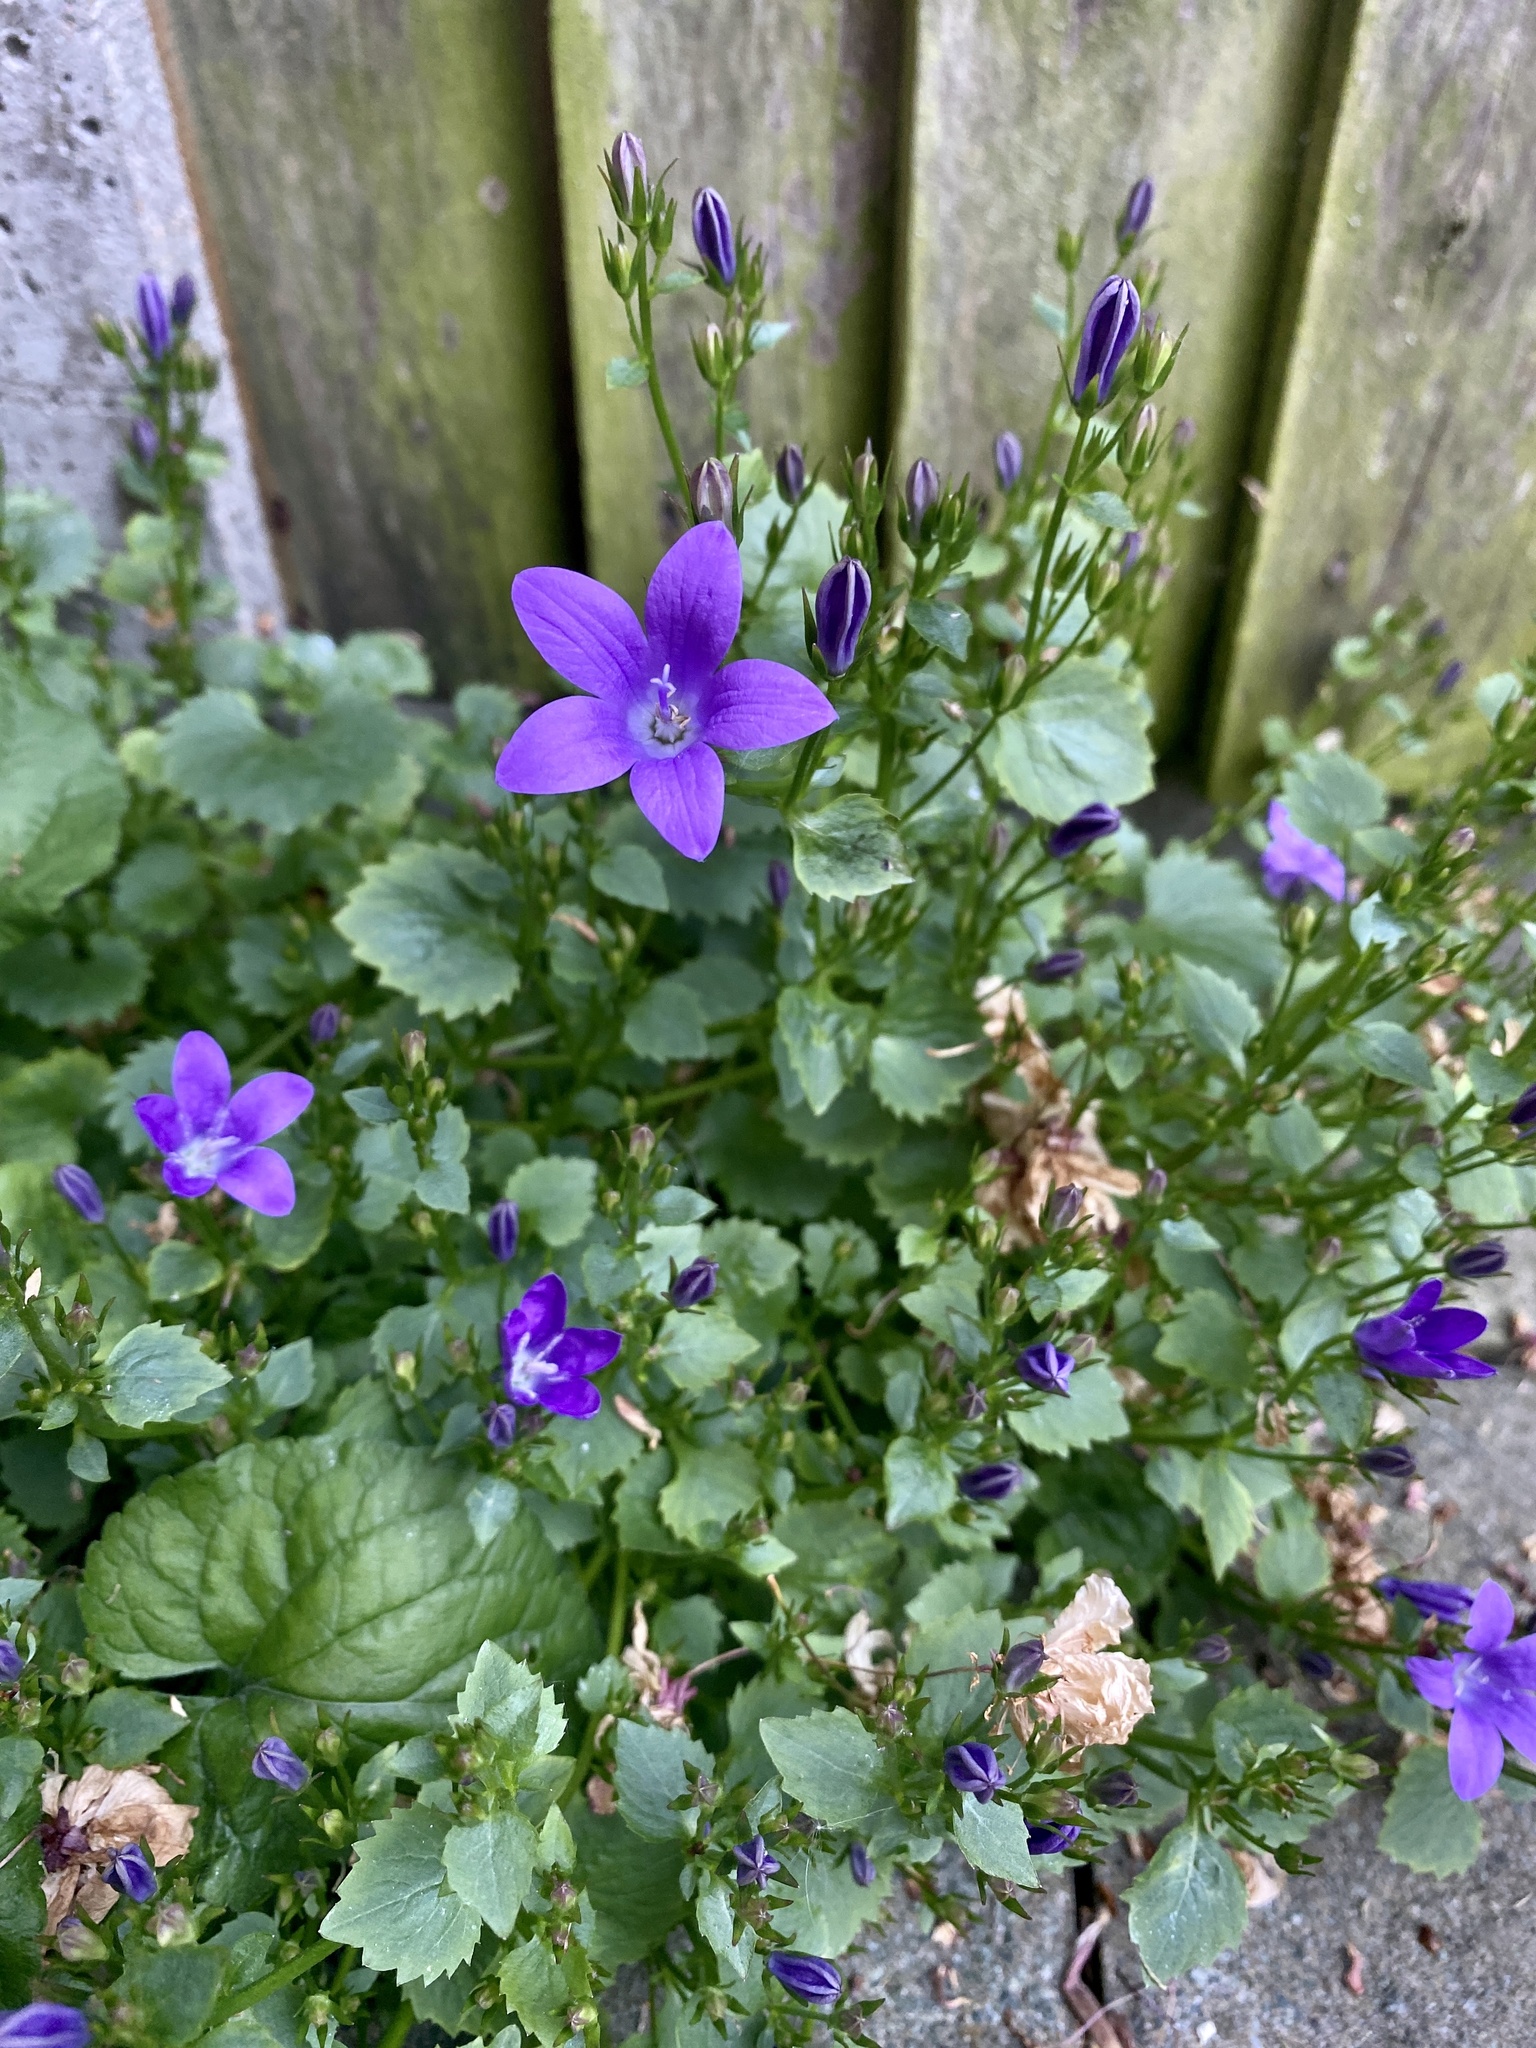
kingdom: Plantae
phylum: Tracheophyta
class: Magnoliopsida
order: Asterales
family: Campanulaceae
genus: Campanula
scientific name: Campanula portenschlagiana
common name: Adria bellflower
